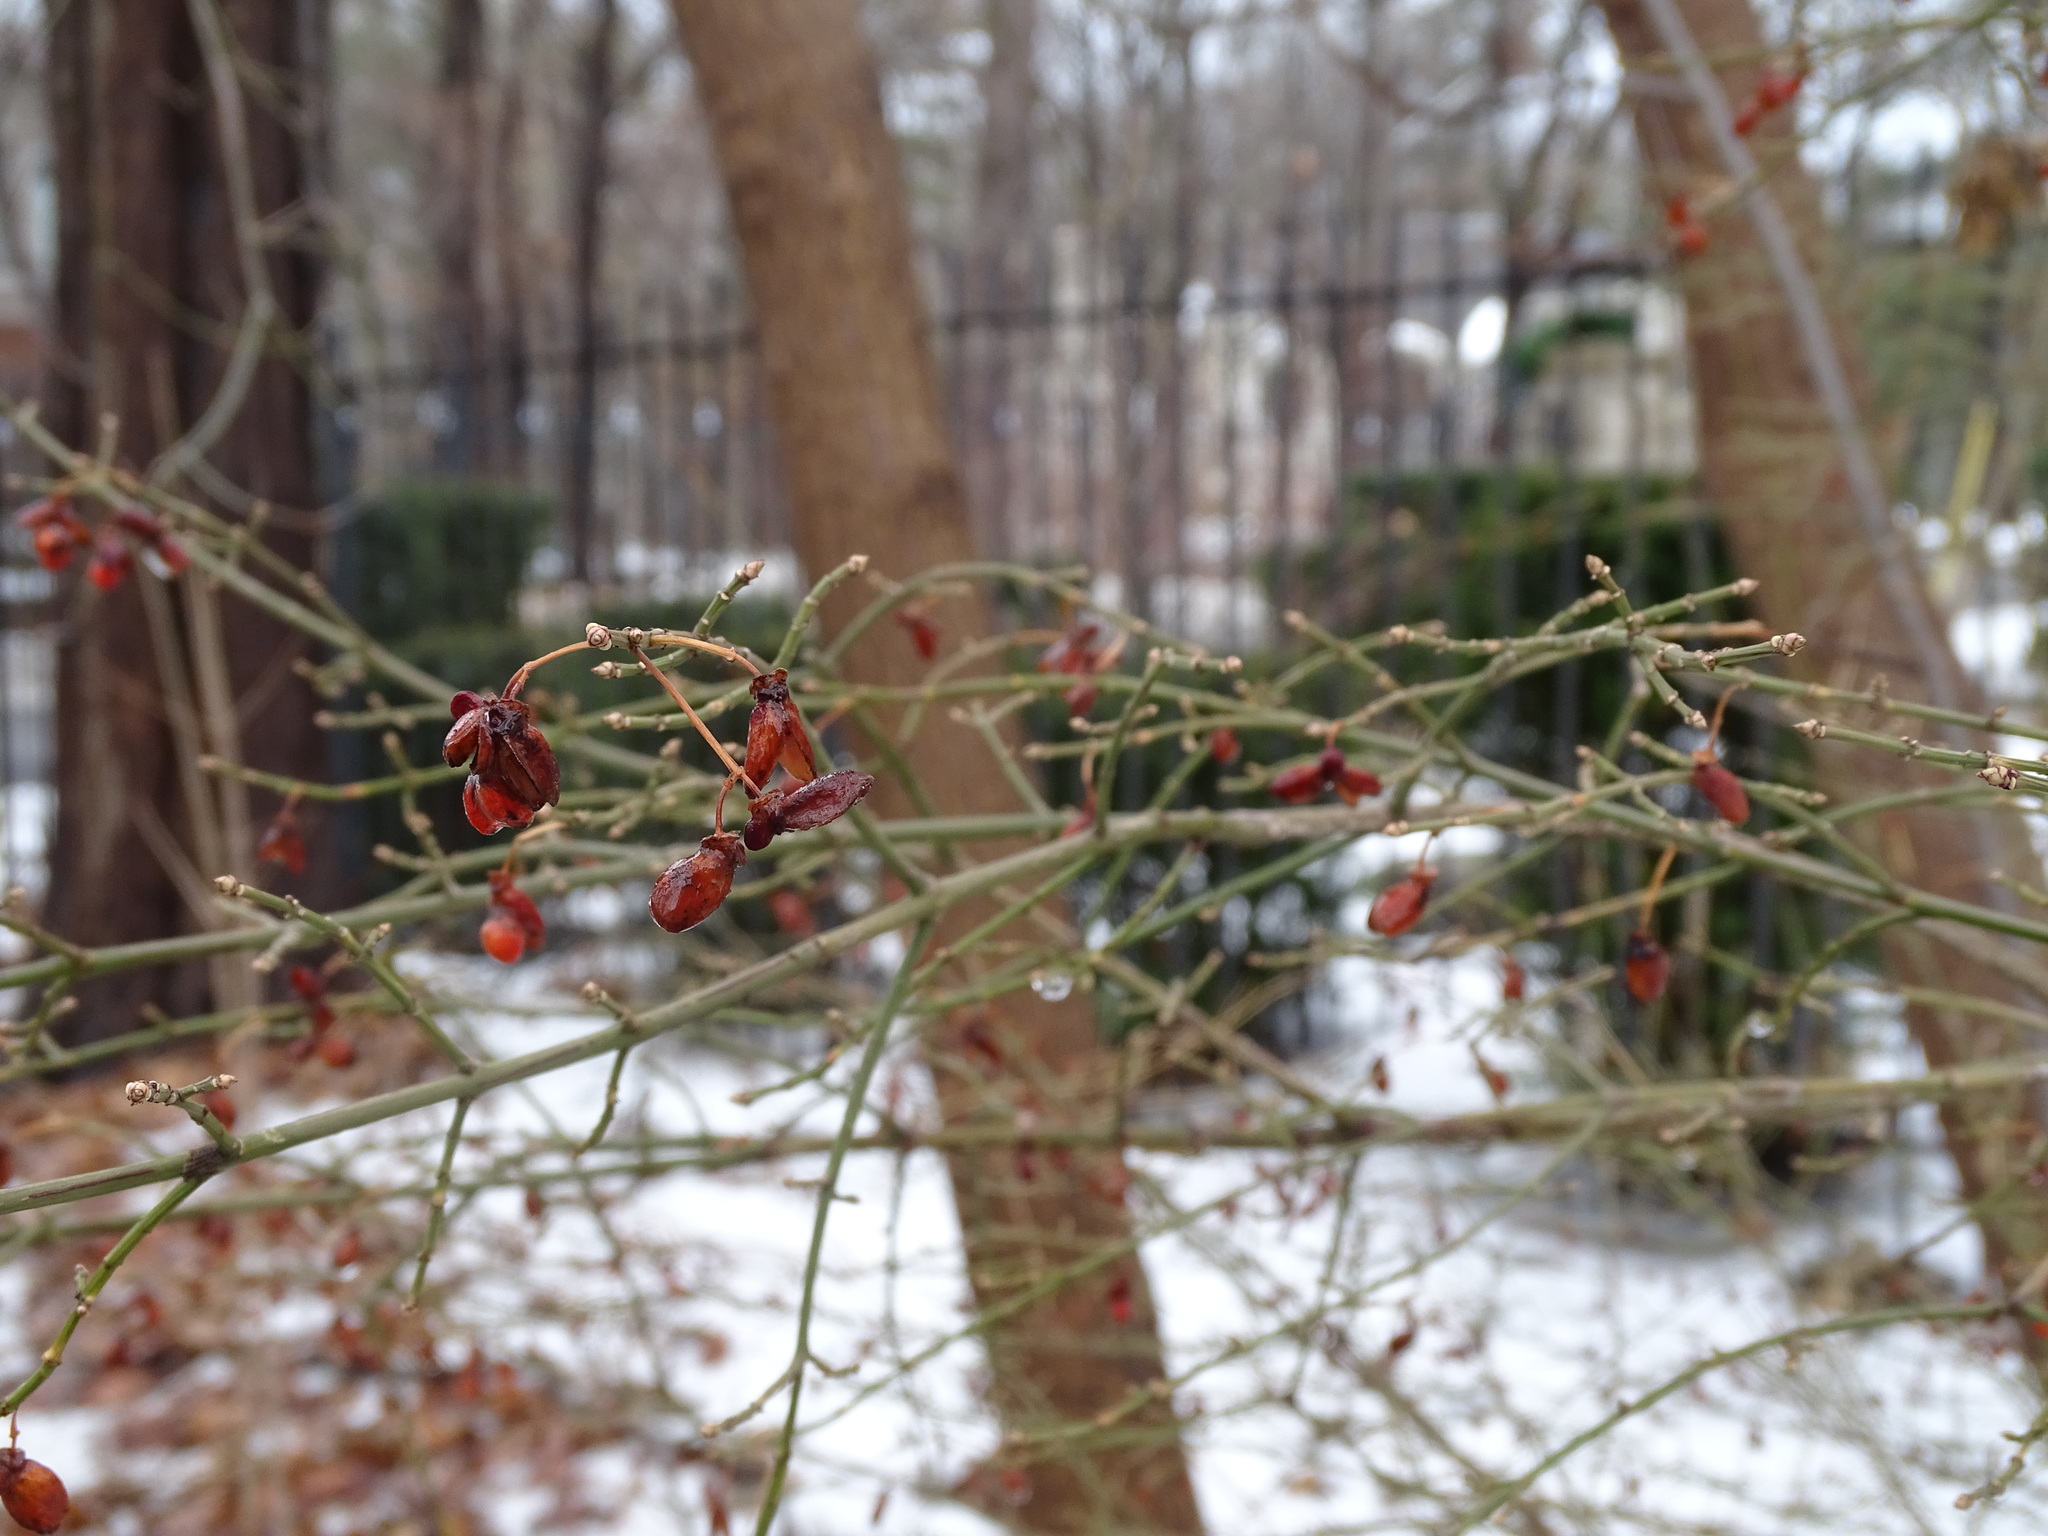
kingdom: Plantae
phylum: Tracheophyta
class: Magnoliopsida
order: Celastrales
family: Celastraceae
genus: Euonymus
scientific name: Euonymus europaeus
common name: Spindle
